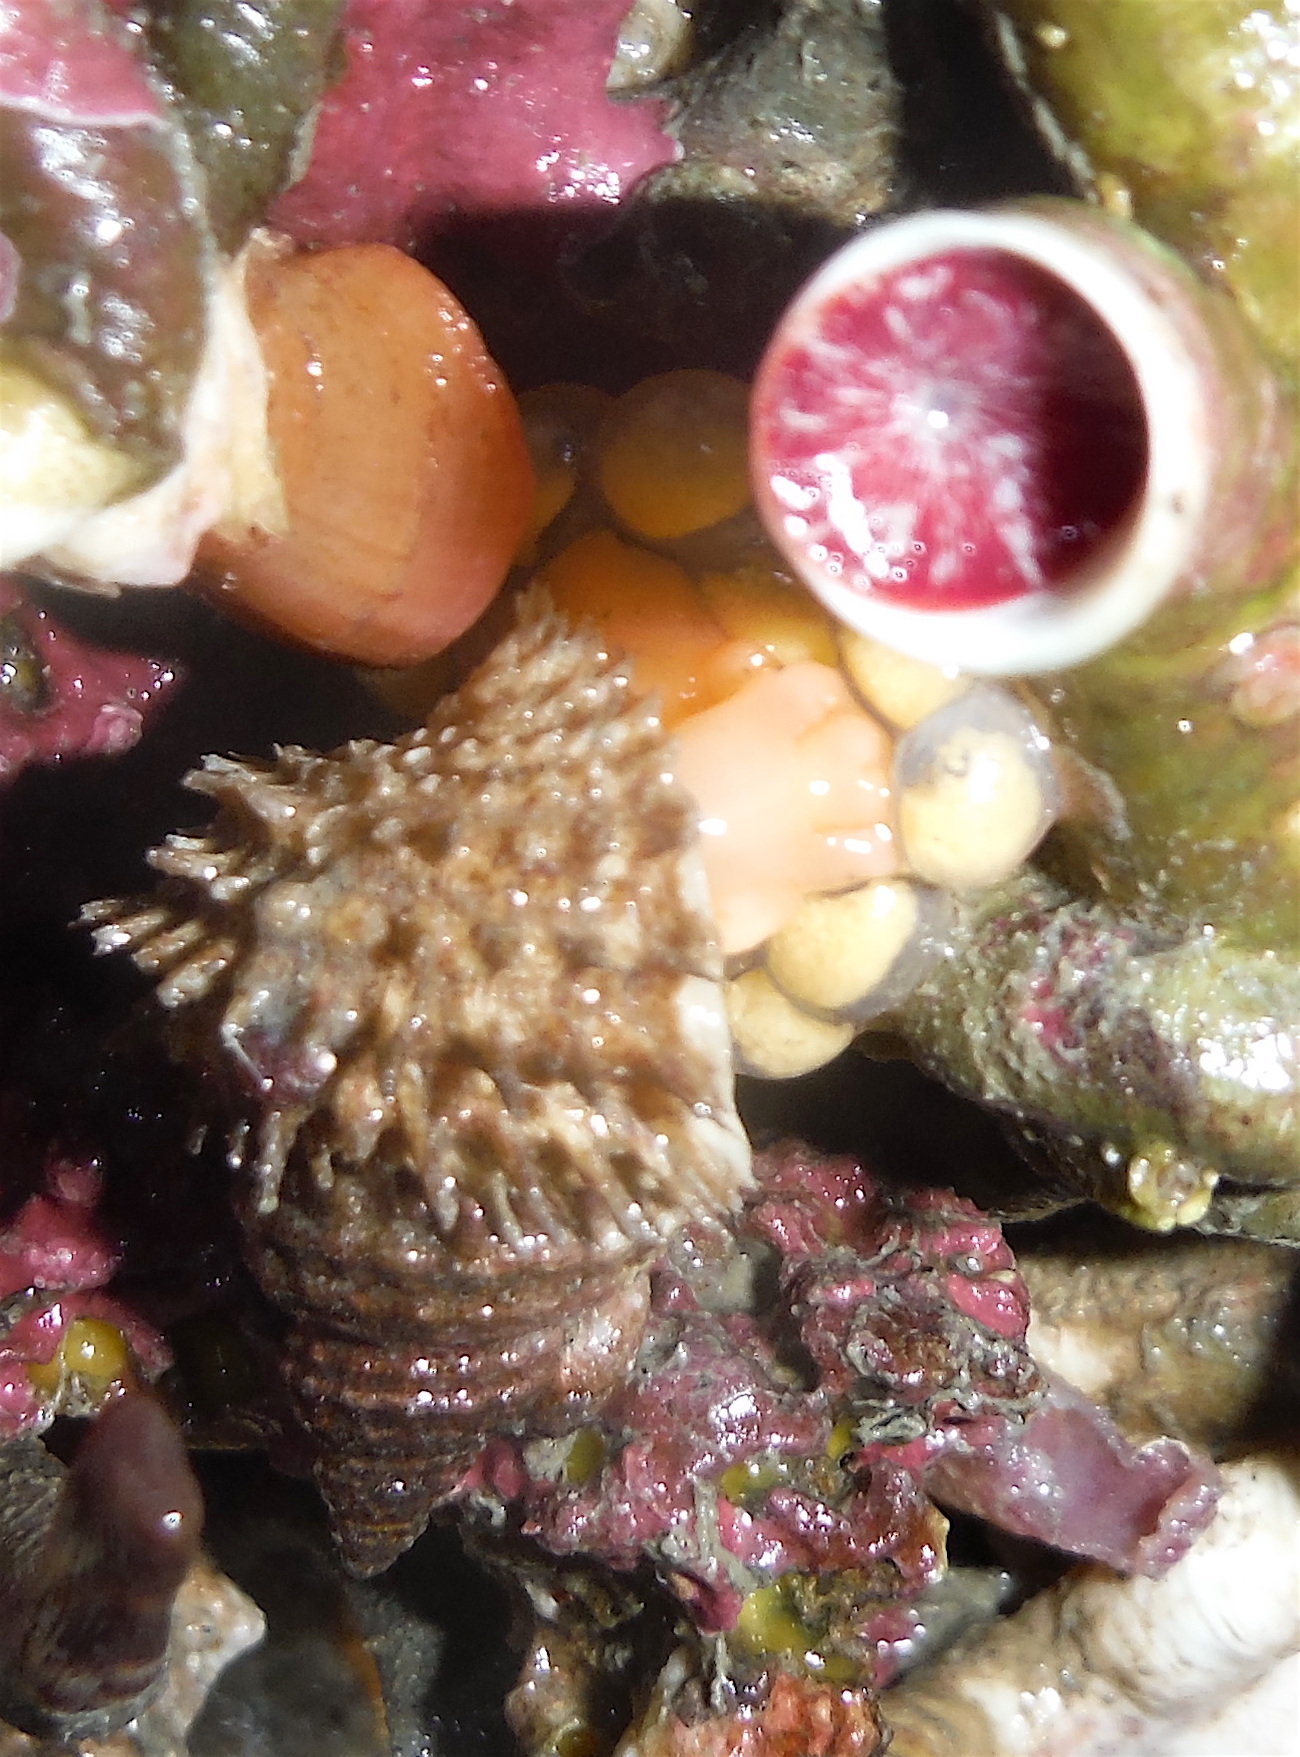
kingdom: Animalia
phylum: Mollusca
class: Gastropoda
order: Littorinimorpha
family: Capulidae
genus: Trichotropis
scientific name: Trichotropis cancellata
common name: Cancellate hairysnail
